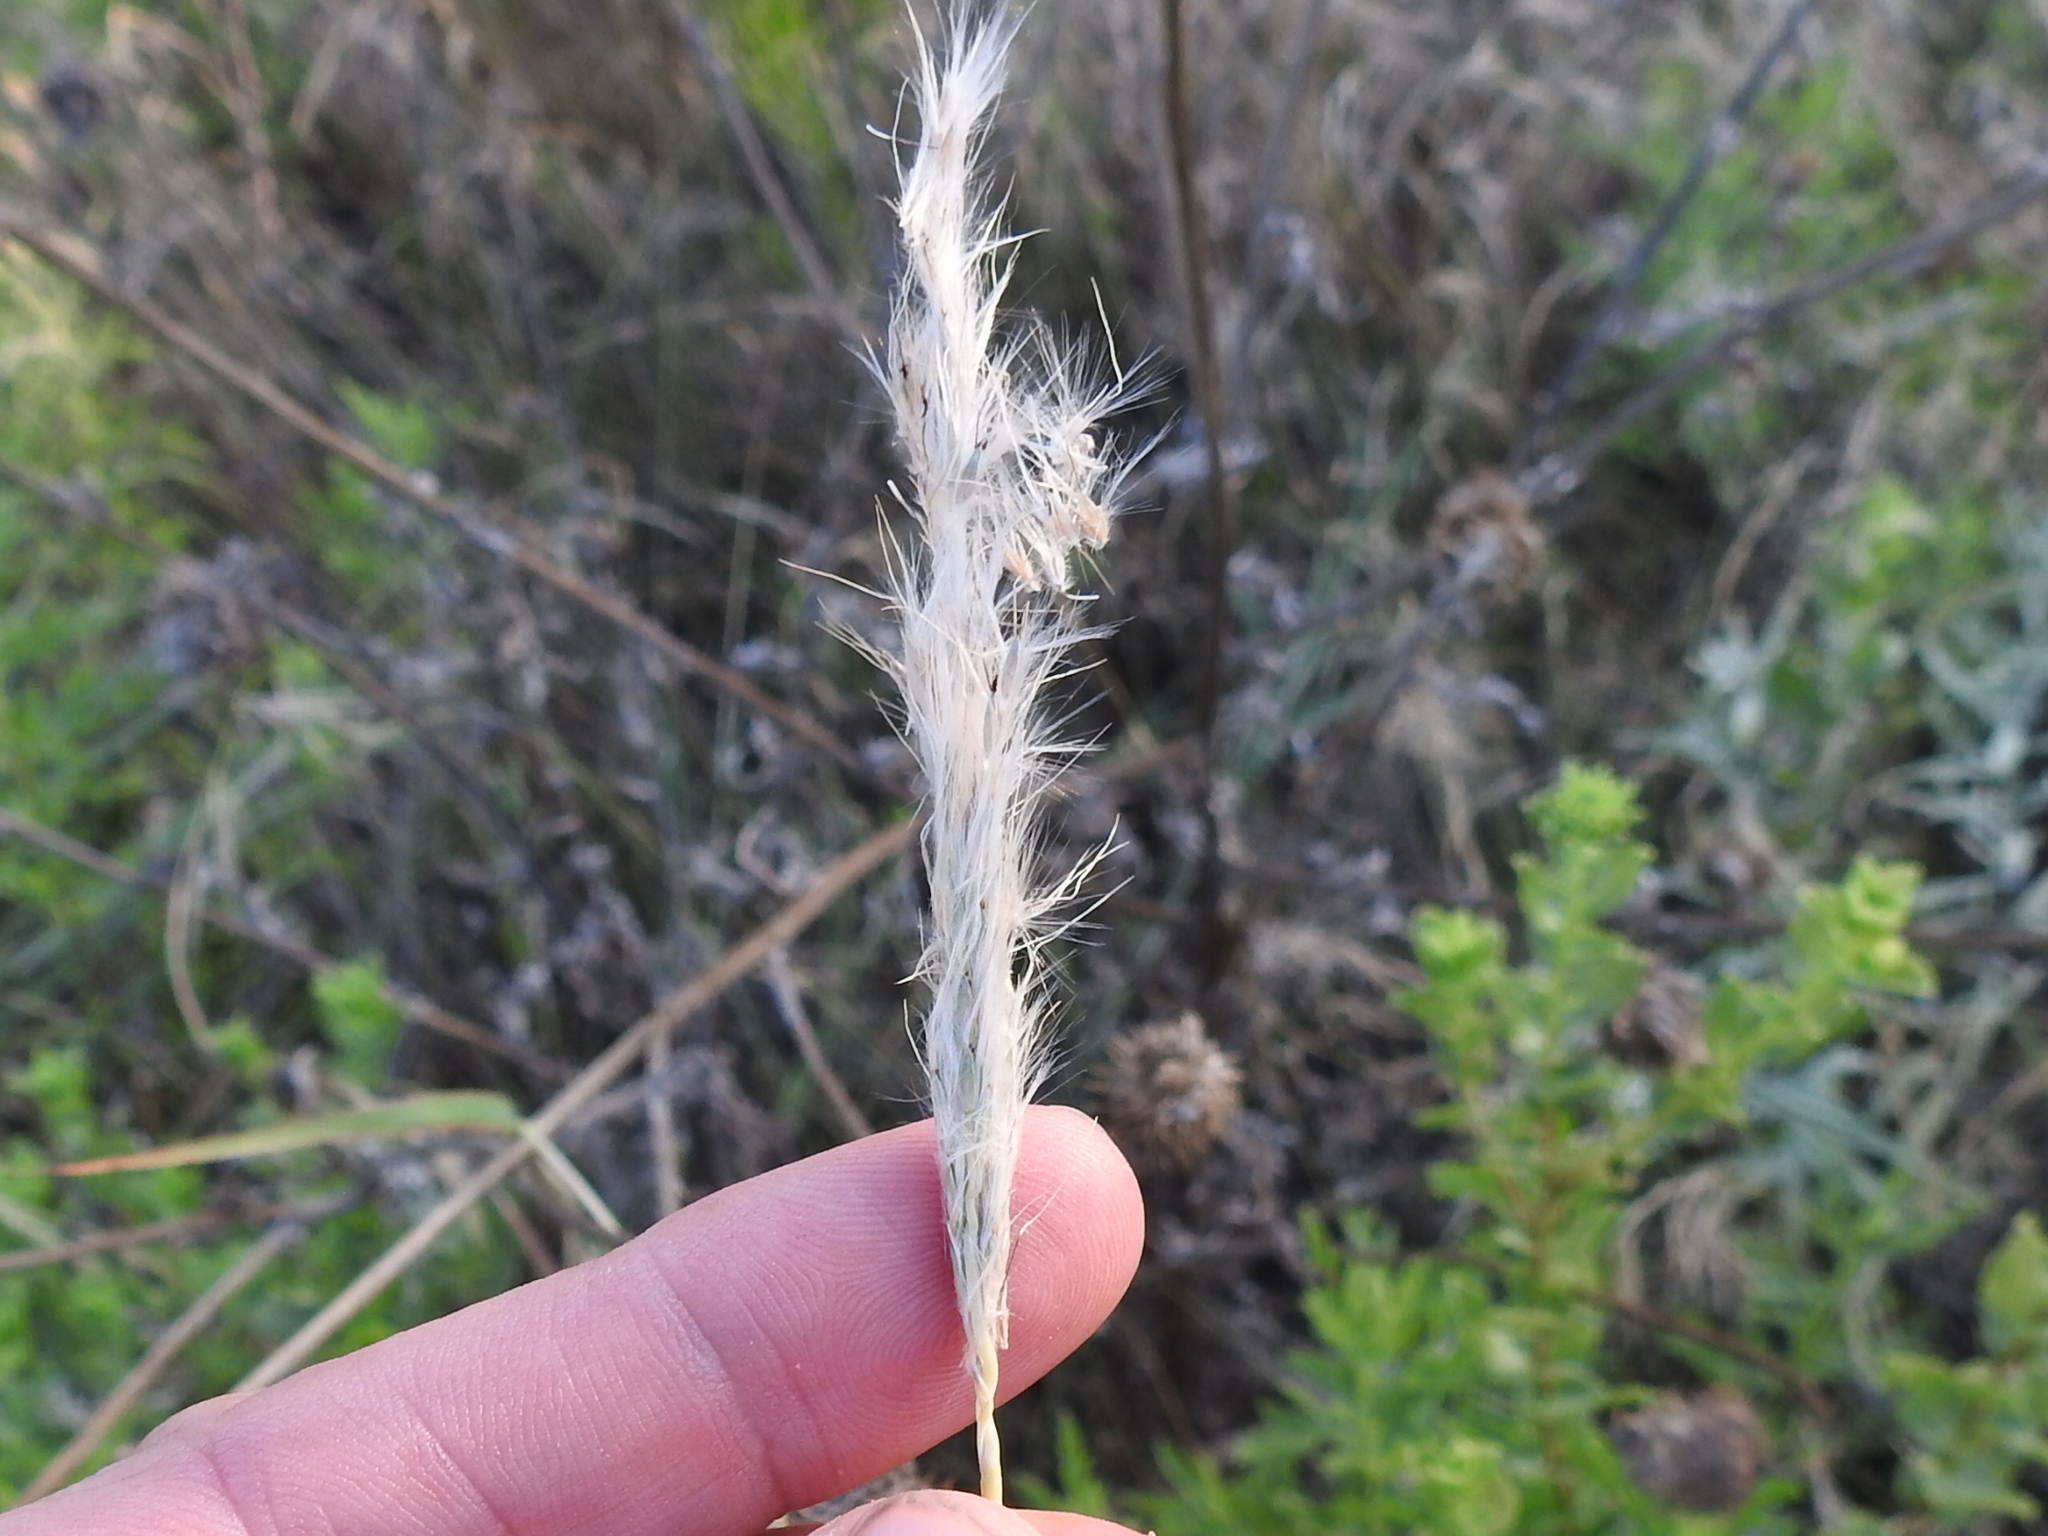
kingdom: Plantae
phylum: Tracheophyta
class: Liliopsida
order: Poales
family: Poaceae
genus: Bothriochloa
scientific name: Bothriochloa torreyana
